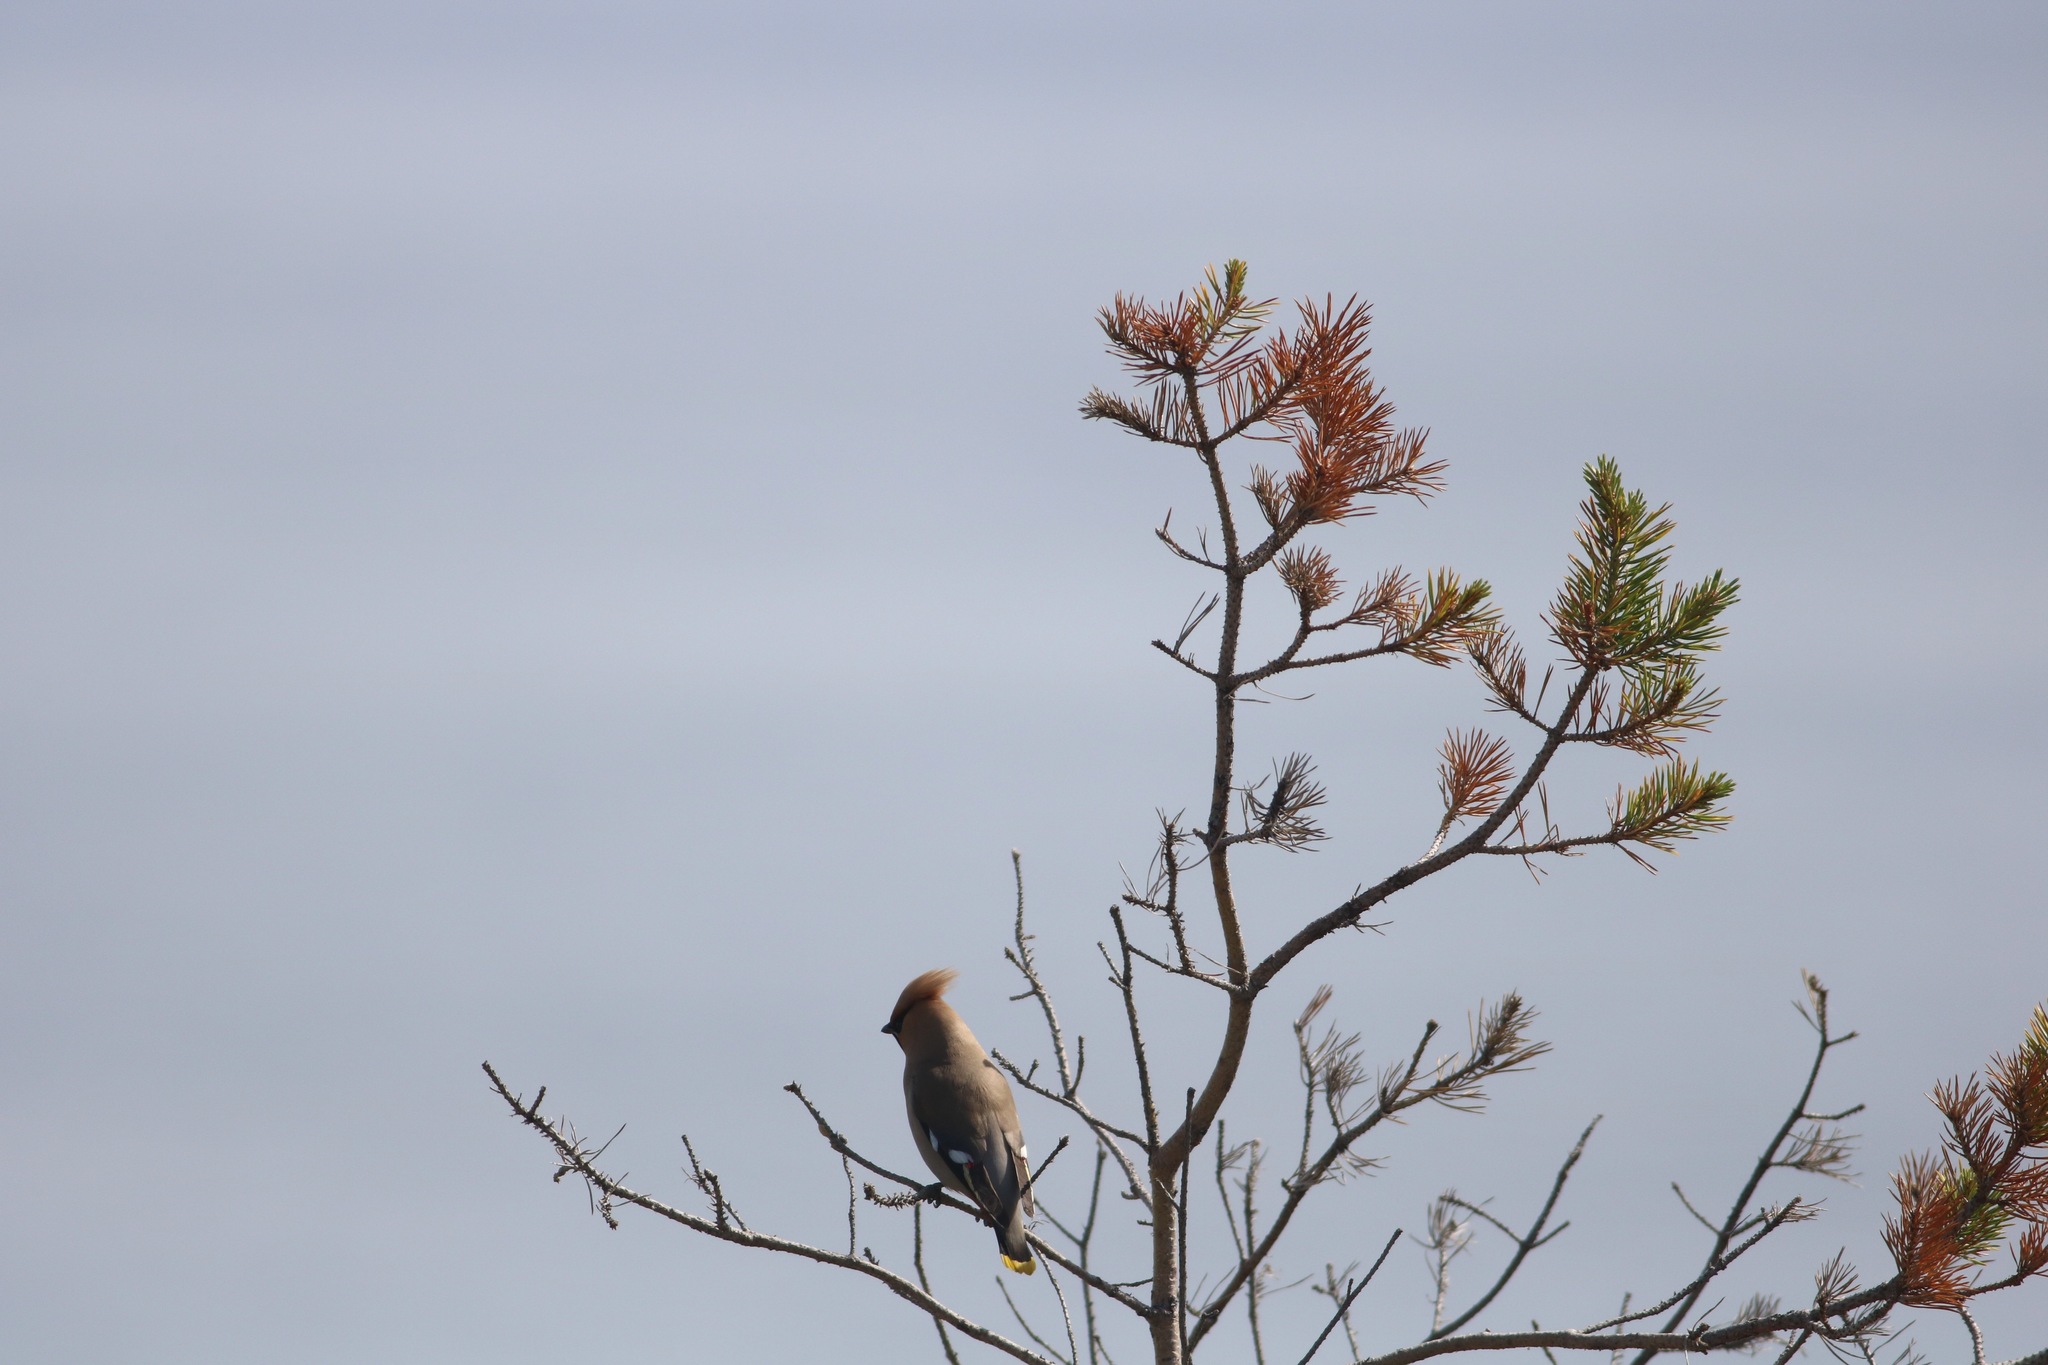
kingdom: Animalia
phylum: Chordata
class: Aves
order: Passeriformes
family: Bombycillidae
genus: Bombycilla
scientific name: Bombycilla garrulus
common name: Bohemian waxwing
